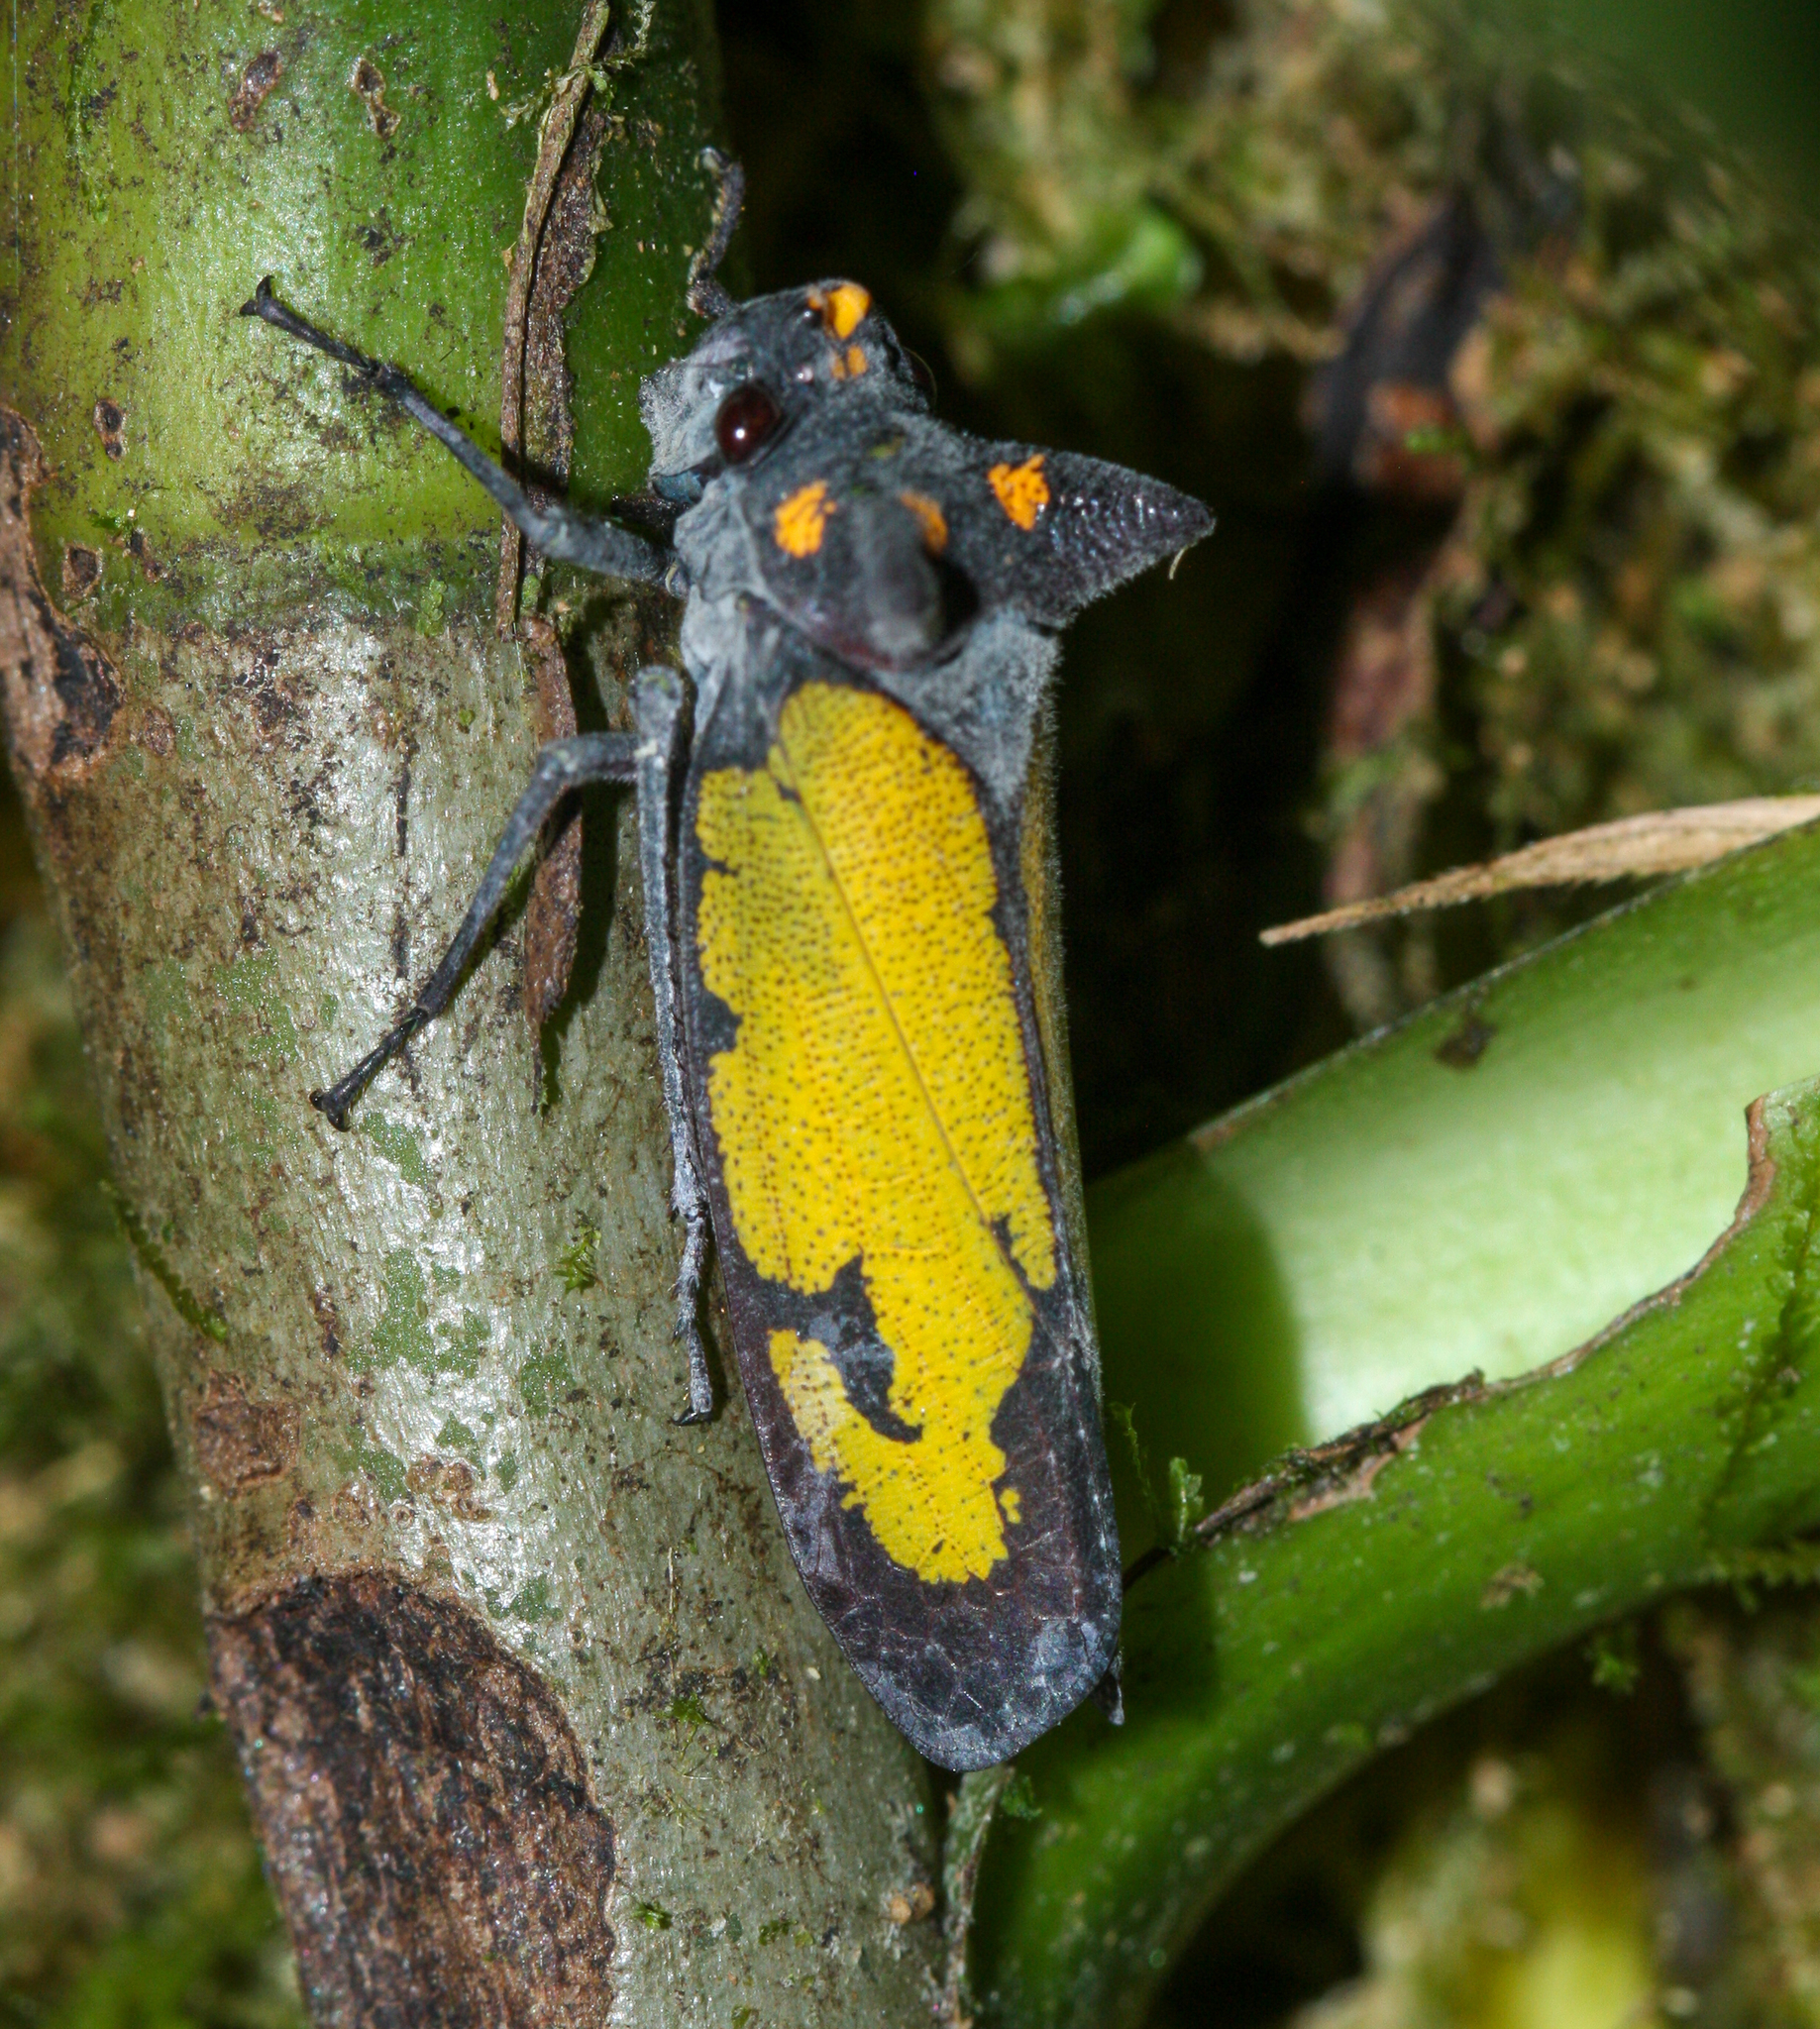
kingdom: Animalia
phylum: Arthropoda
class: Insecta
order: Hemiptera
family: Cicadellidae
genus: Zyzzogeton
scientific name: Zyzzogeton viridipennis
